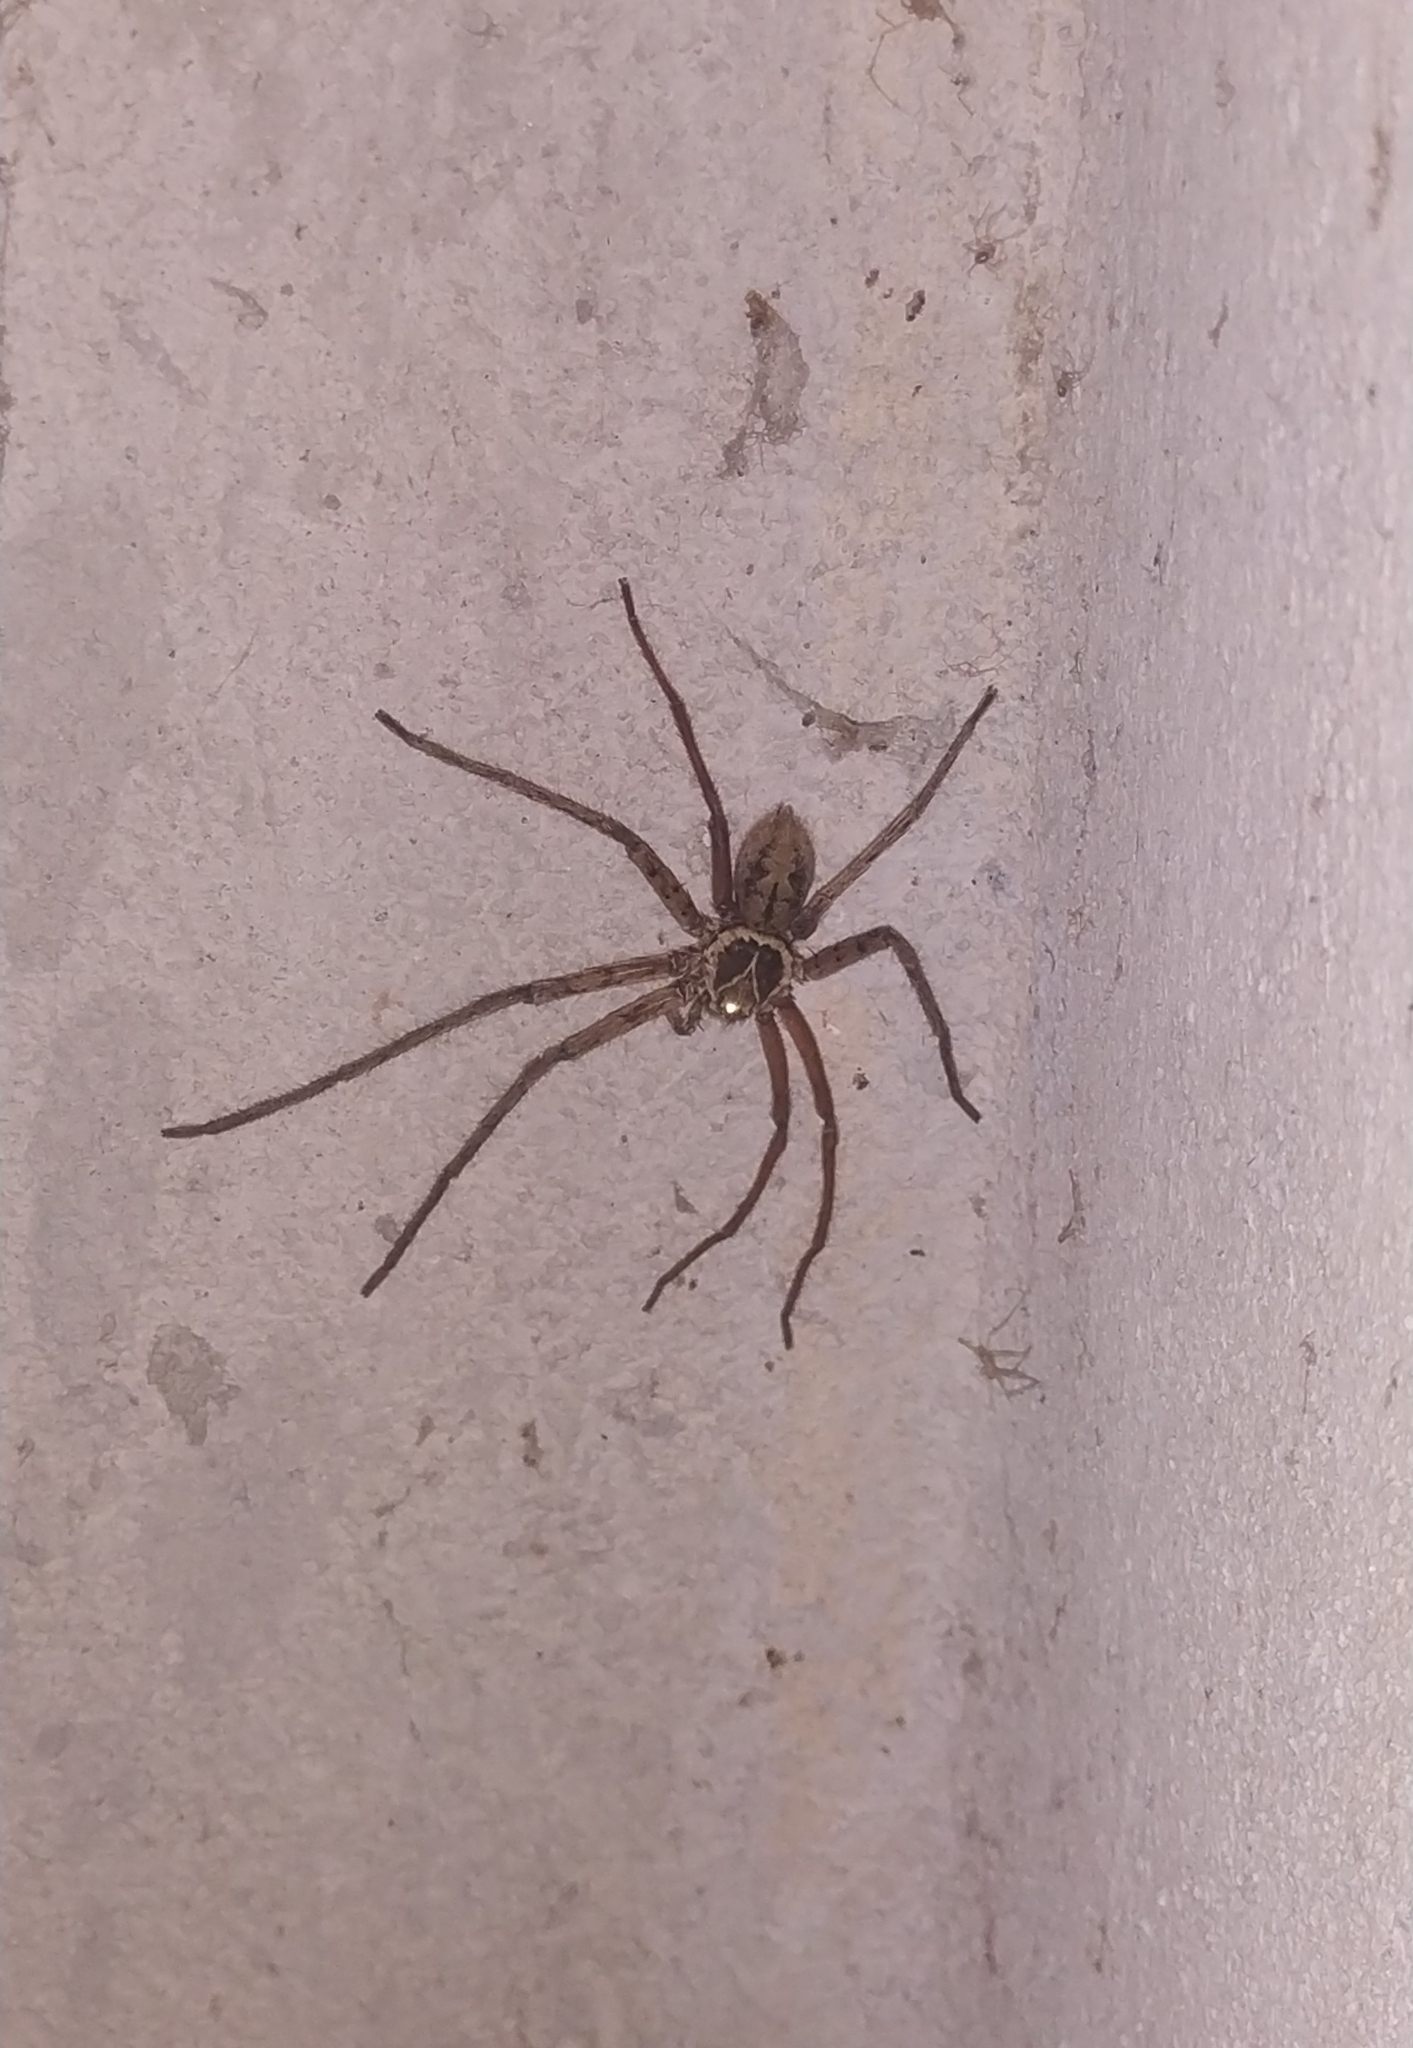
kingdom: Animalia
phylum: Arthropoda
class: Arachnida
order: Araneae
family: Sparassidae
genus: Heteropoda
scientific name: Heteropoda venatoria
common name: Huntsman spider
